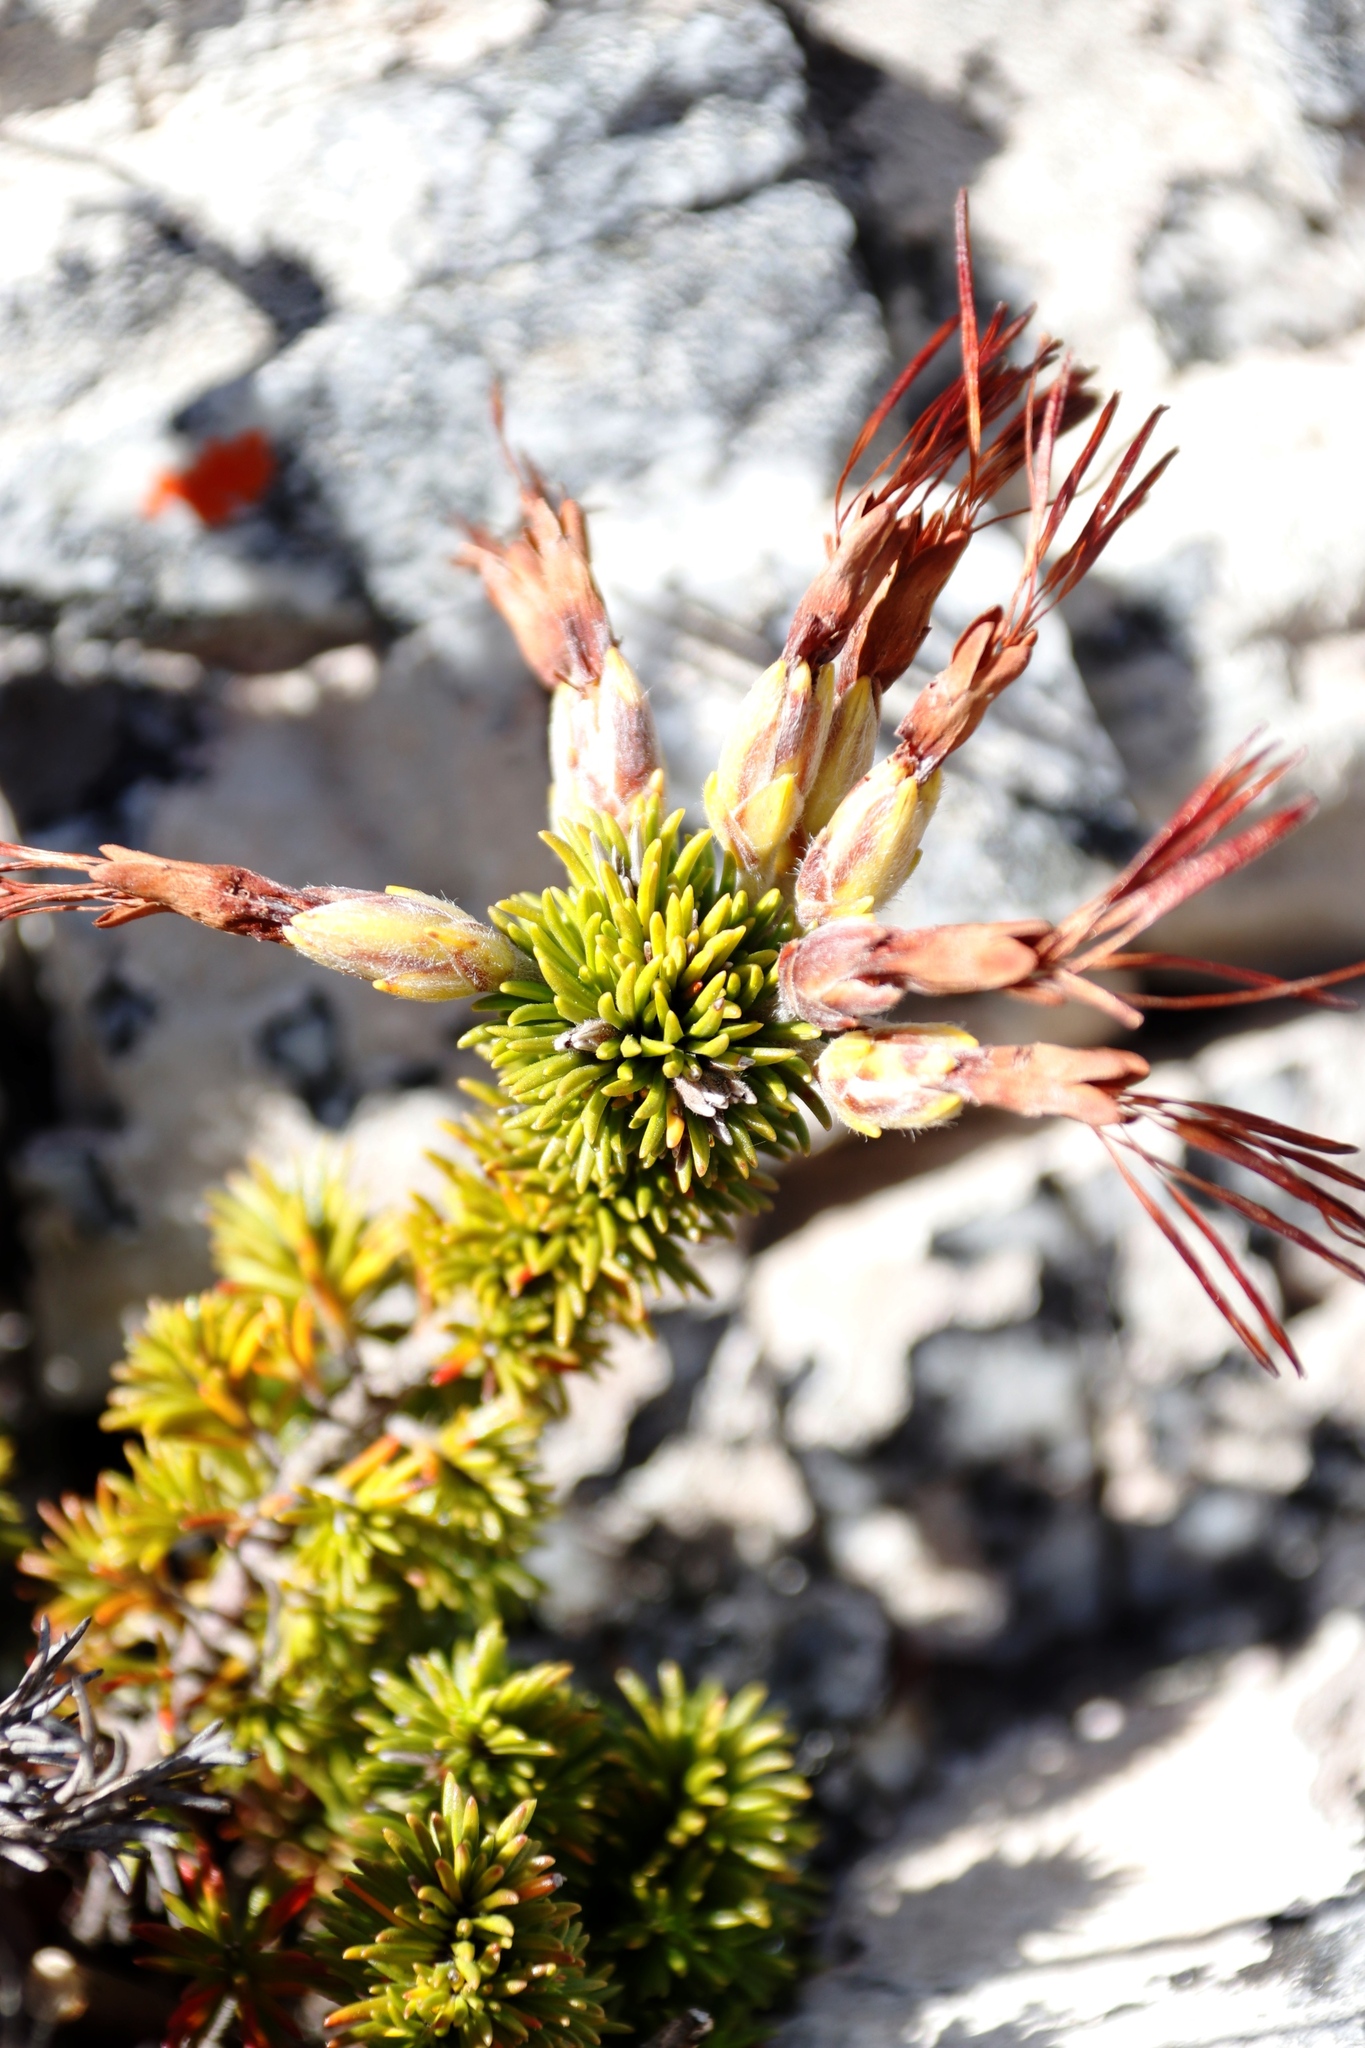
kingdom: Plantae
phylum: Tracheophyta
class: Magnoliopsida
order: Ericales
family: Ericaceae
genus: Erica
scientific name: Erica coccinea
